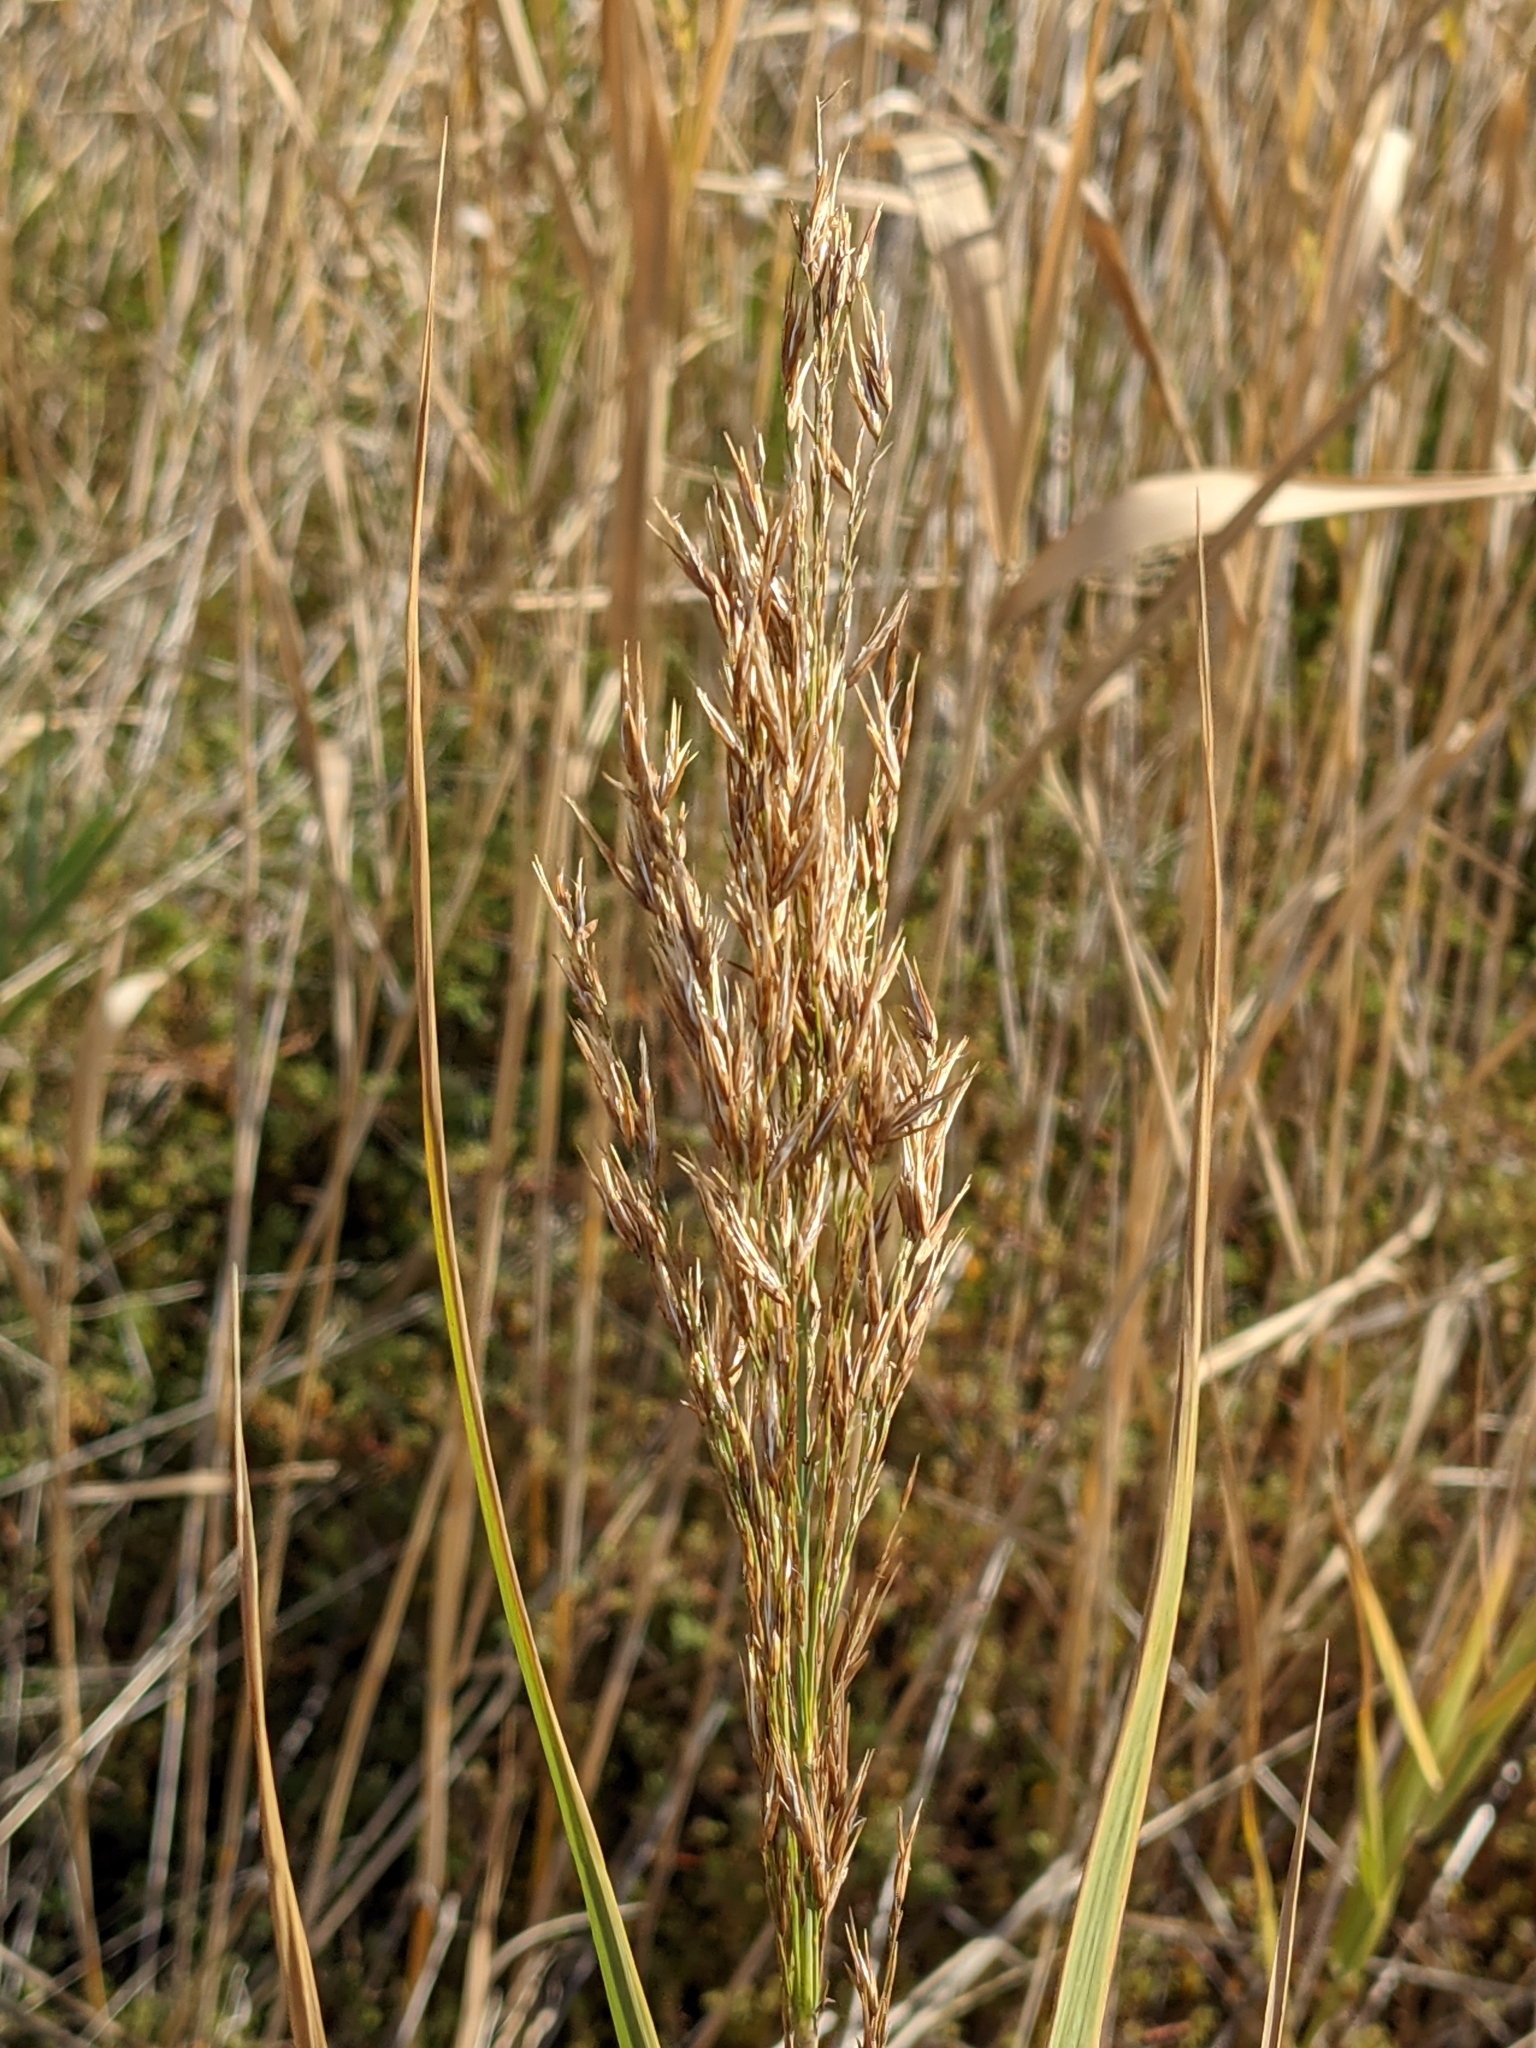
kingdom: Plantae
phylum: Tracheophyta
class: Liliopsida
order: Poales
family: Poaceae
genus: Phragmites
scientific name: Phragmites australis
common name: Common reed
